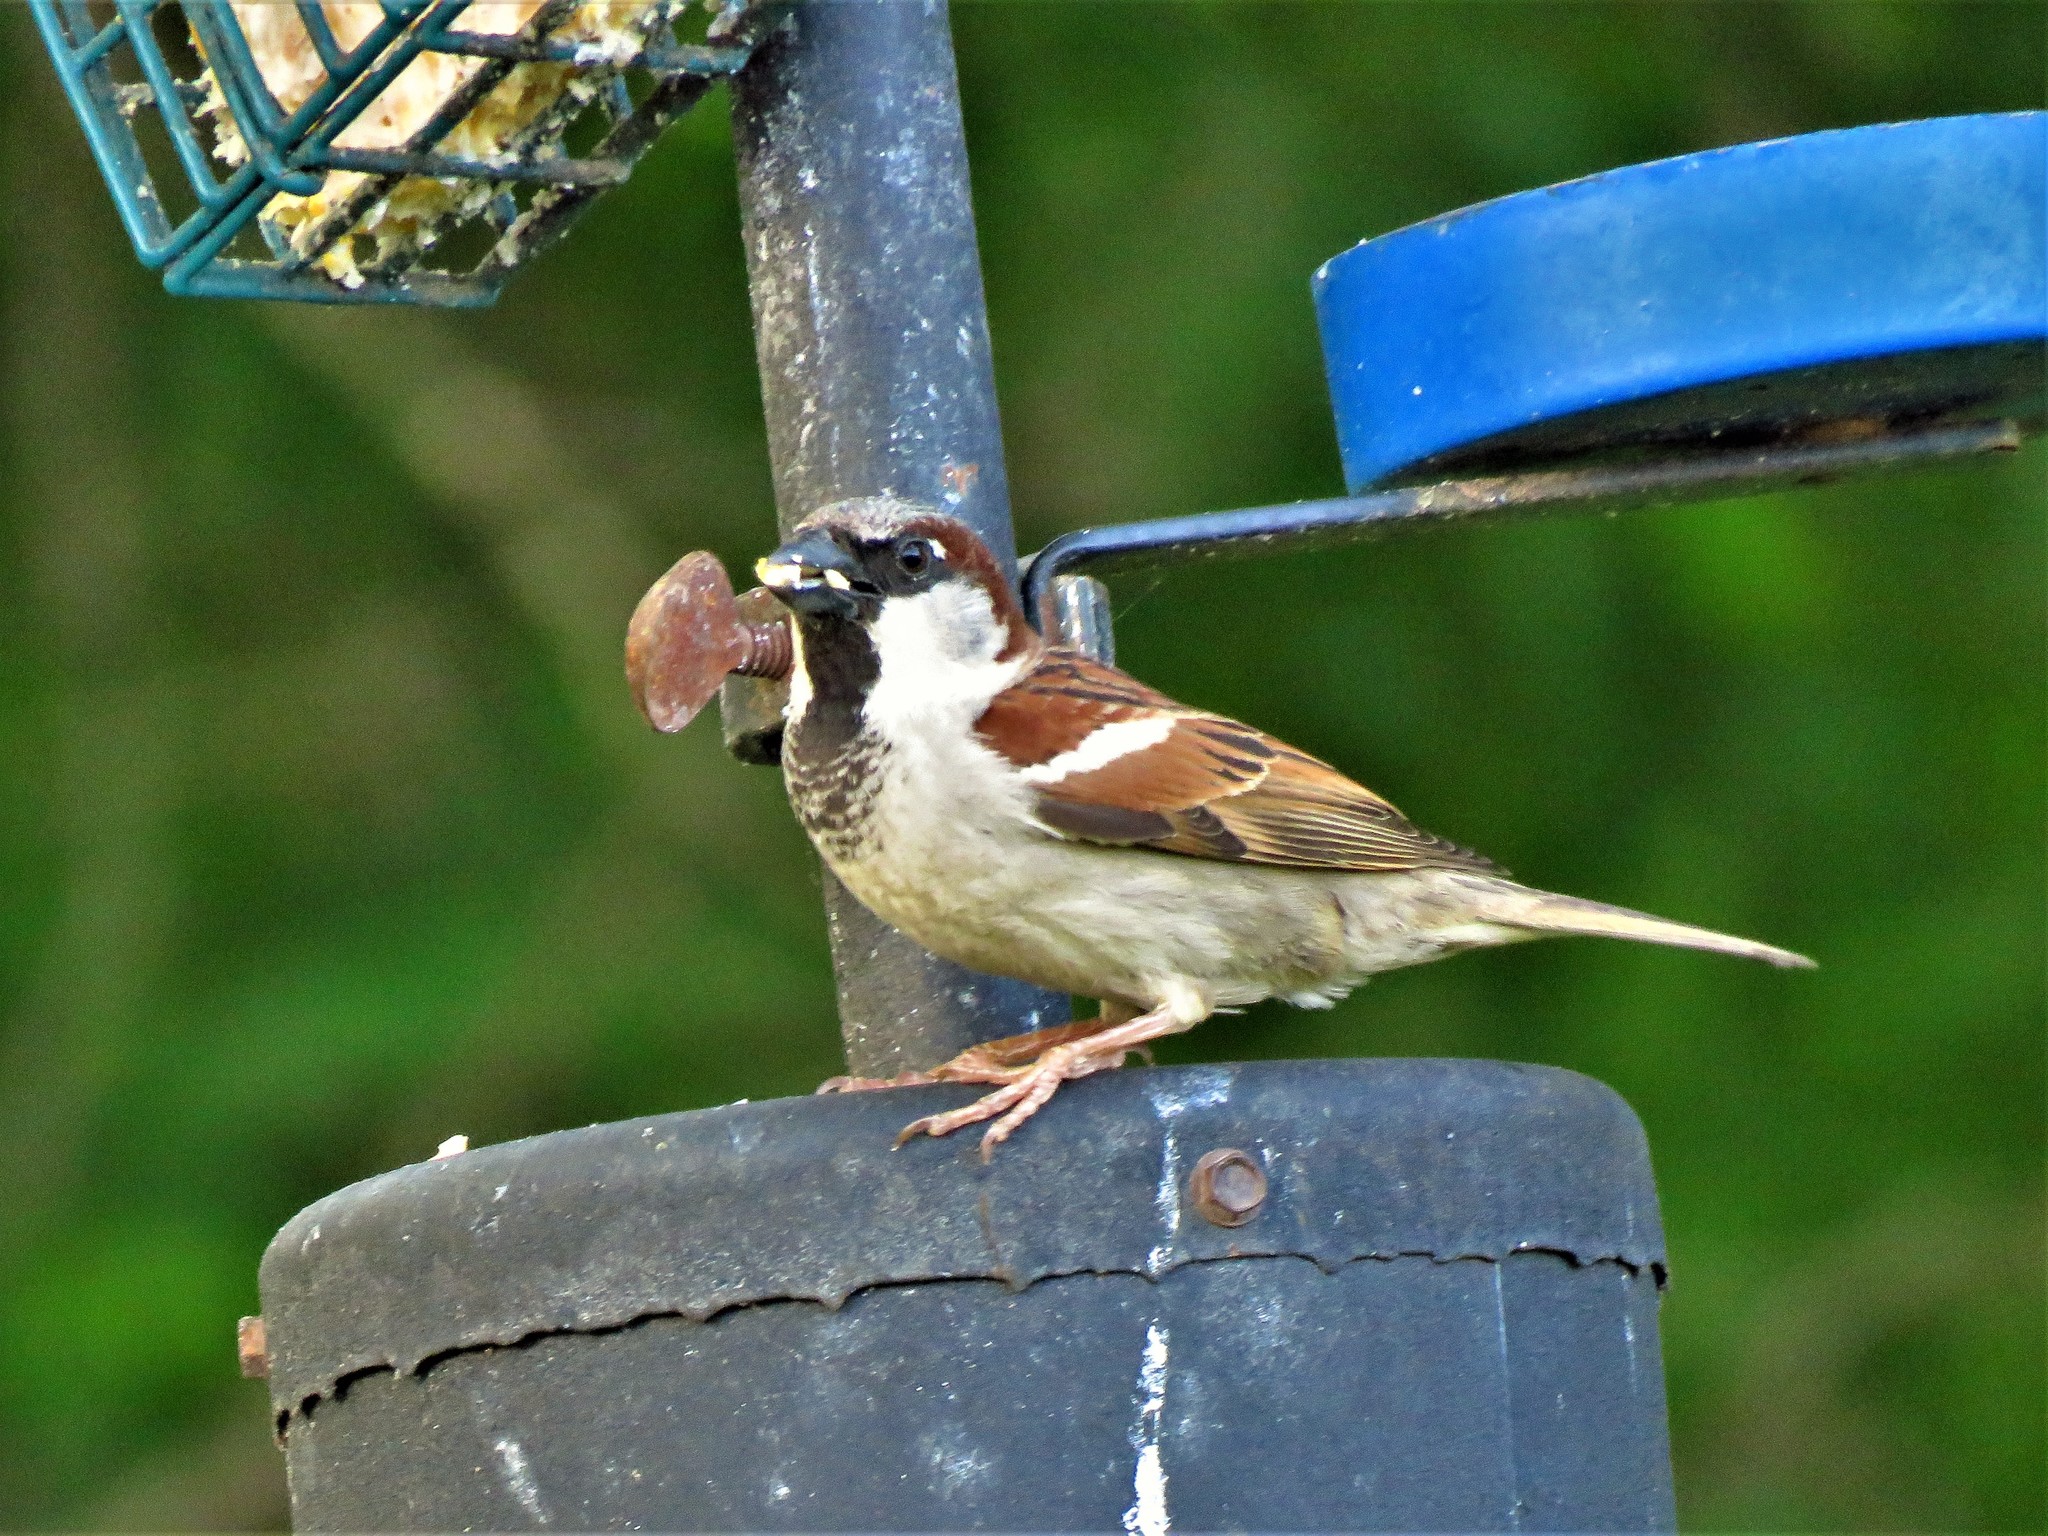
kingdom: Animalia
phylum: Chordata
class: Aves
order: Passeriformes
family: Passeridae
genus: Passer
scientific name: Passer domesticus
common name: House sparrow
